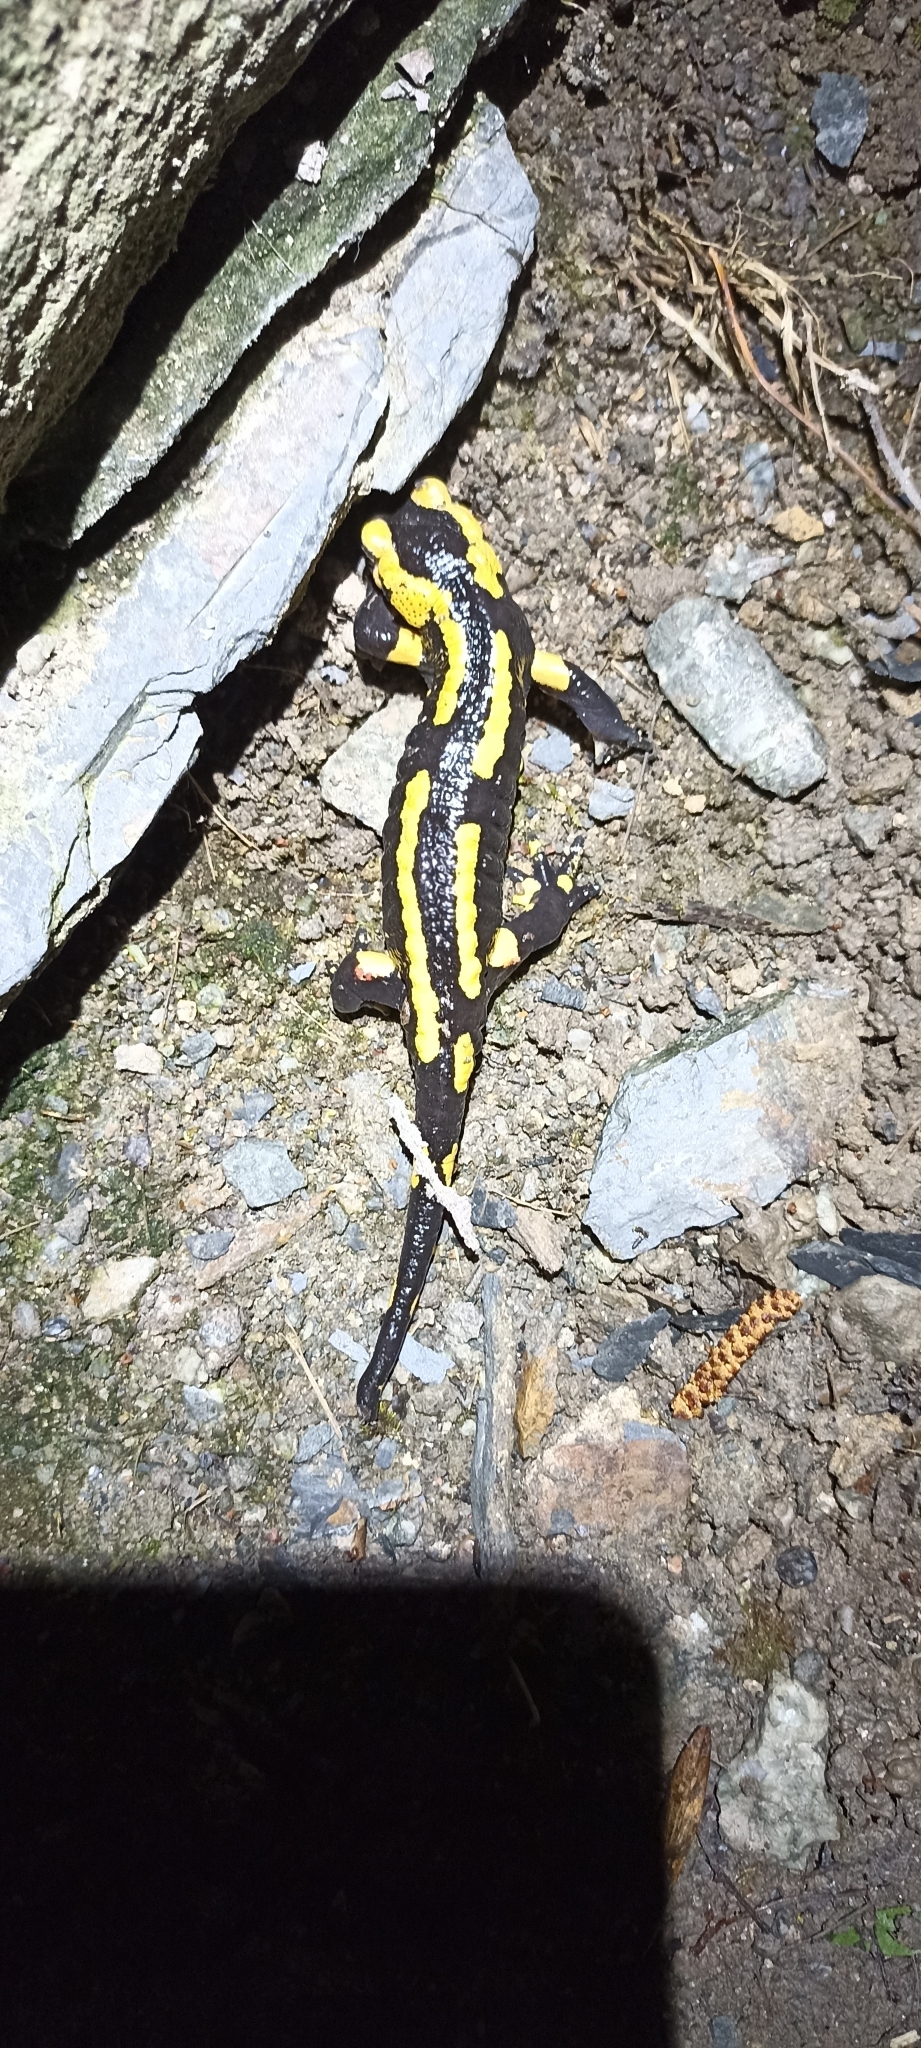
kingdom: Animalia
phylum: Chordata
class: Amphibia
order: Caudata
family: Salamandridae
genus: Salamandra
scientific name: Salamandra salamandra
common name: Fire salamander
